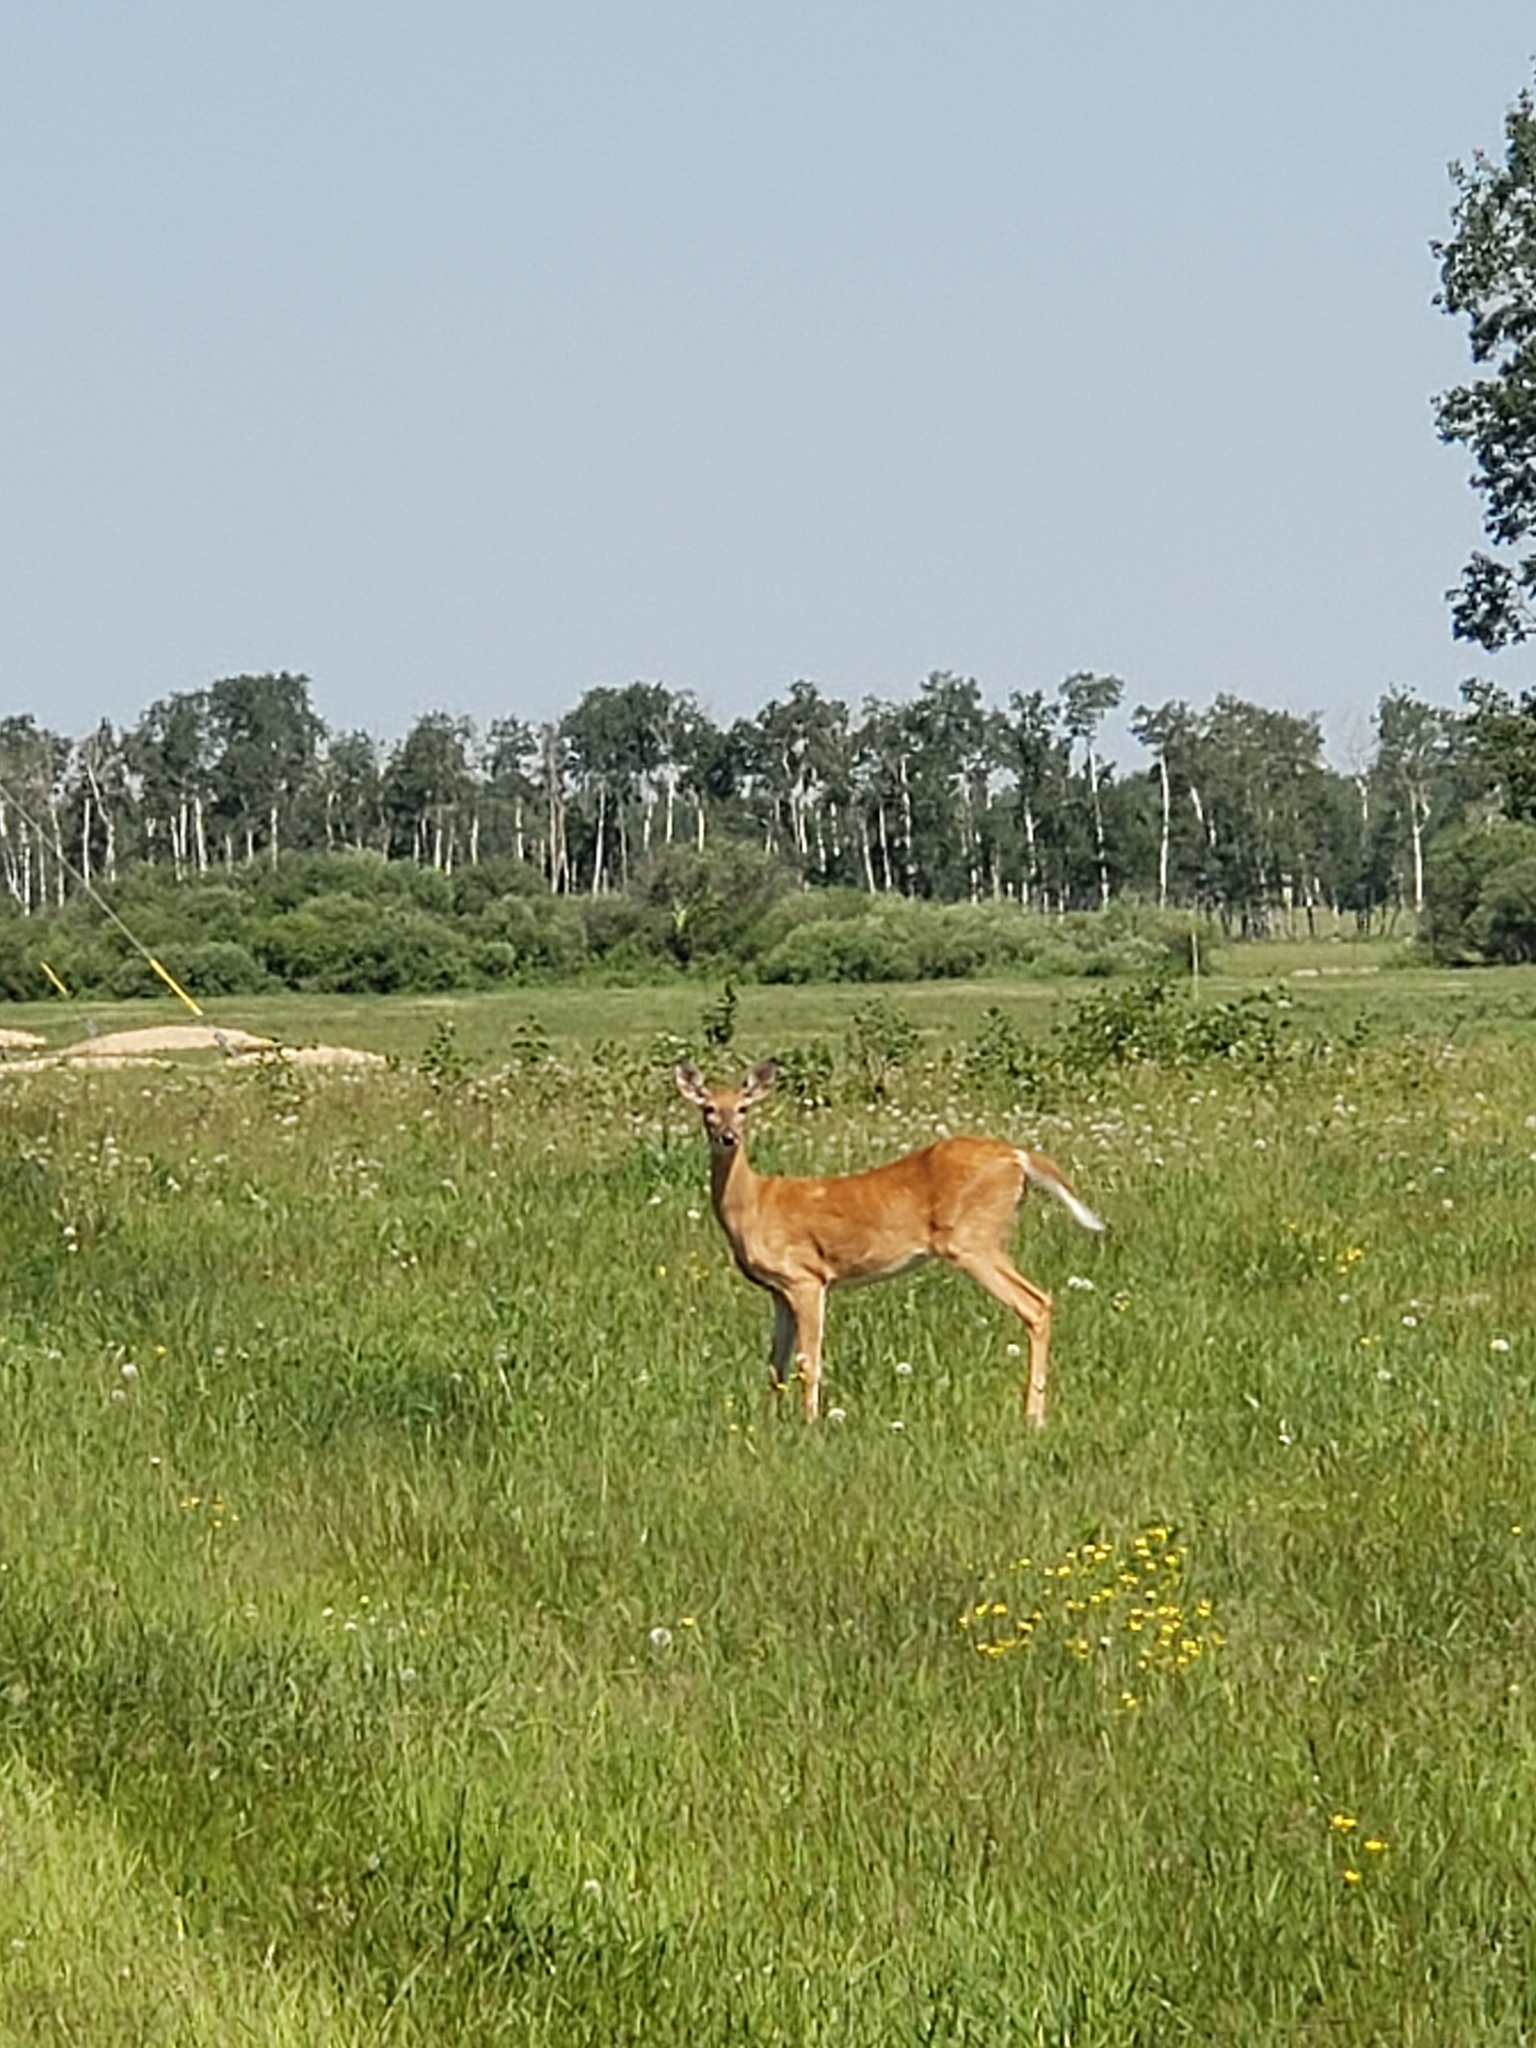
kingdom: Animalia
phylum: Chordata
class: Mammalia
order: Artiodactyla
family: Cervidae
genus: Odocoileus
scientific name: Odocoileus virginianus
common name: White-tailed deer
